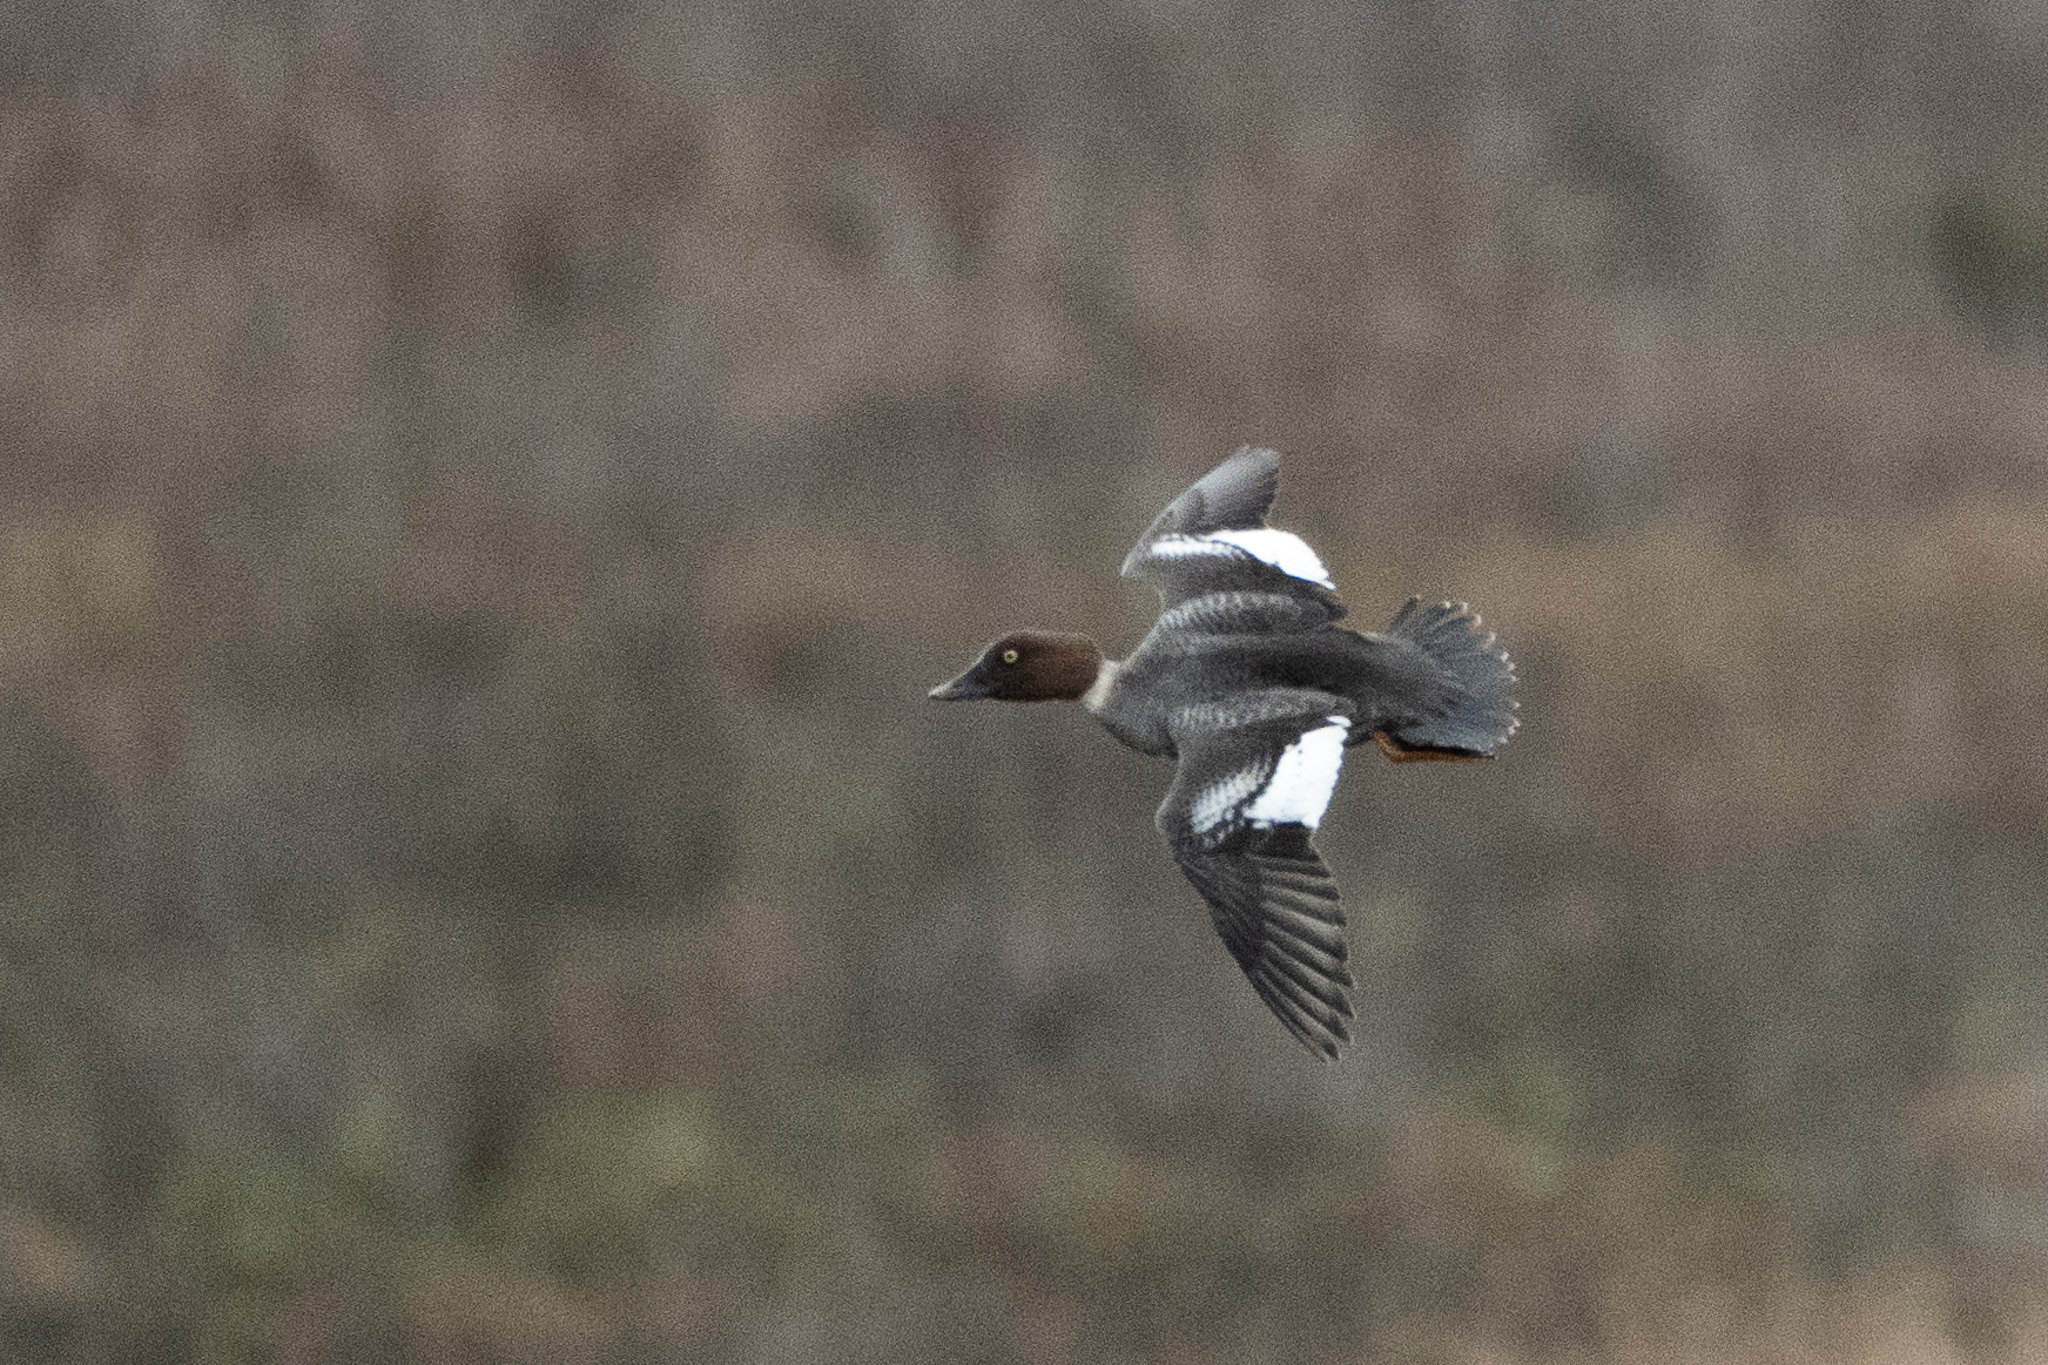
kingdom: Animalia
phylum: Chordata
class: Aves
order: Anseriformes
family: Anatidae
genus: Bucephala
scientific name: Bucephala clangula
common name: Common goldeneye
